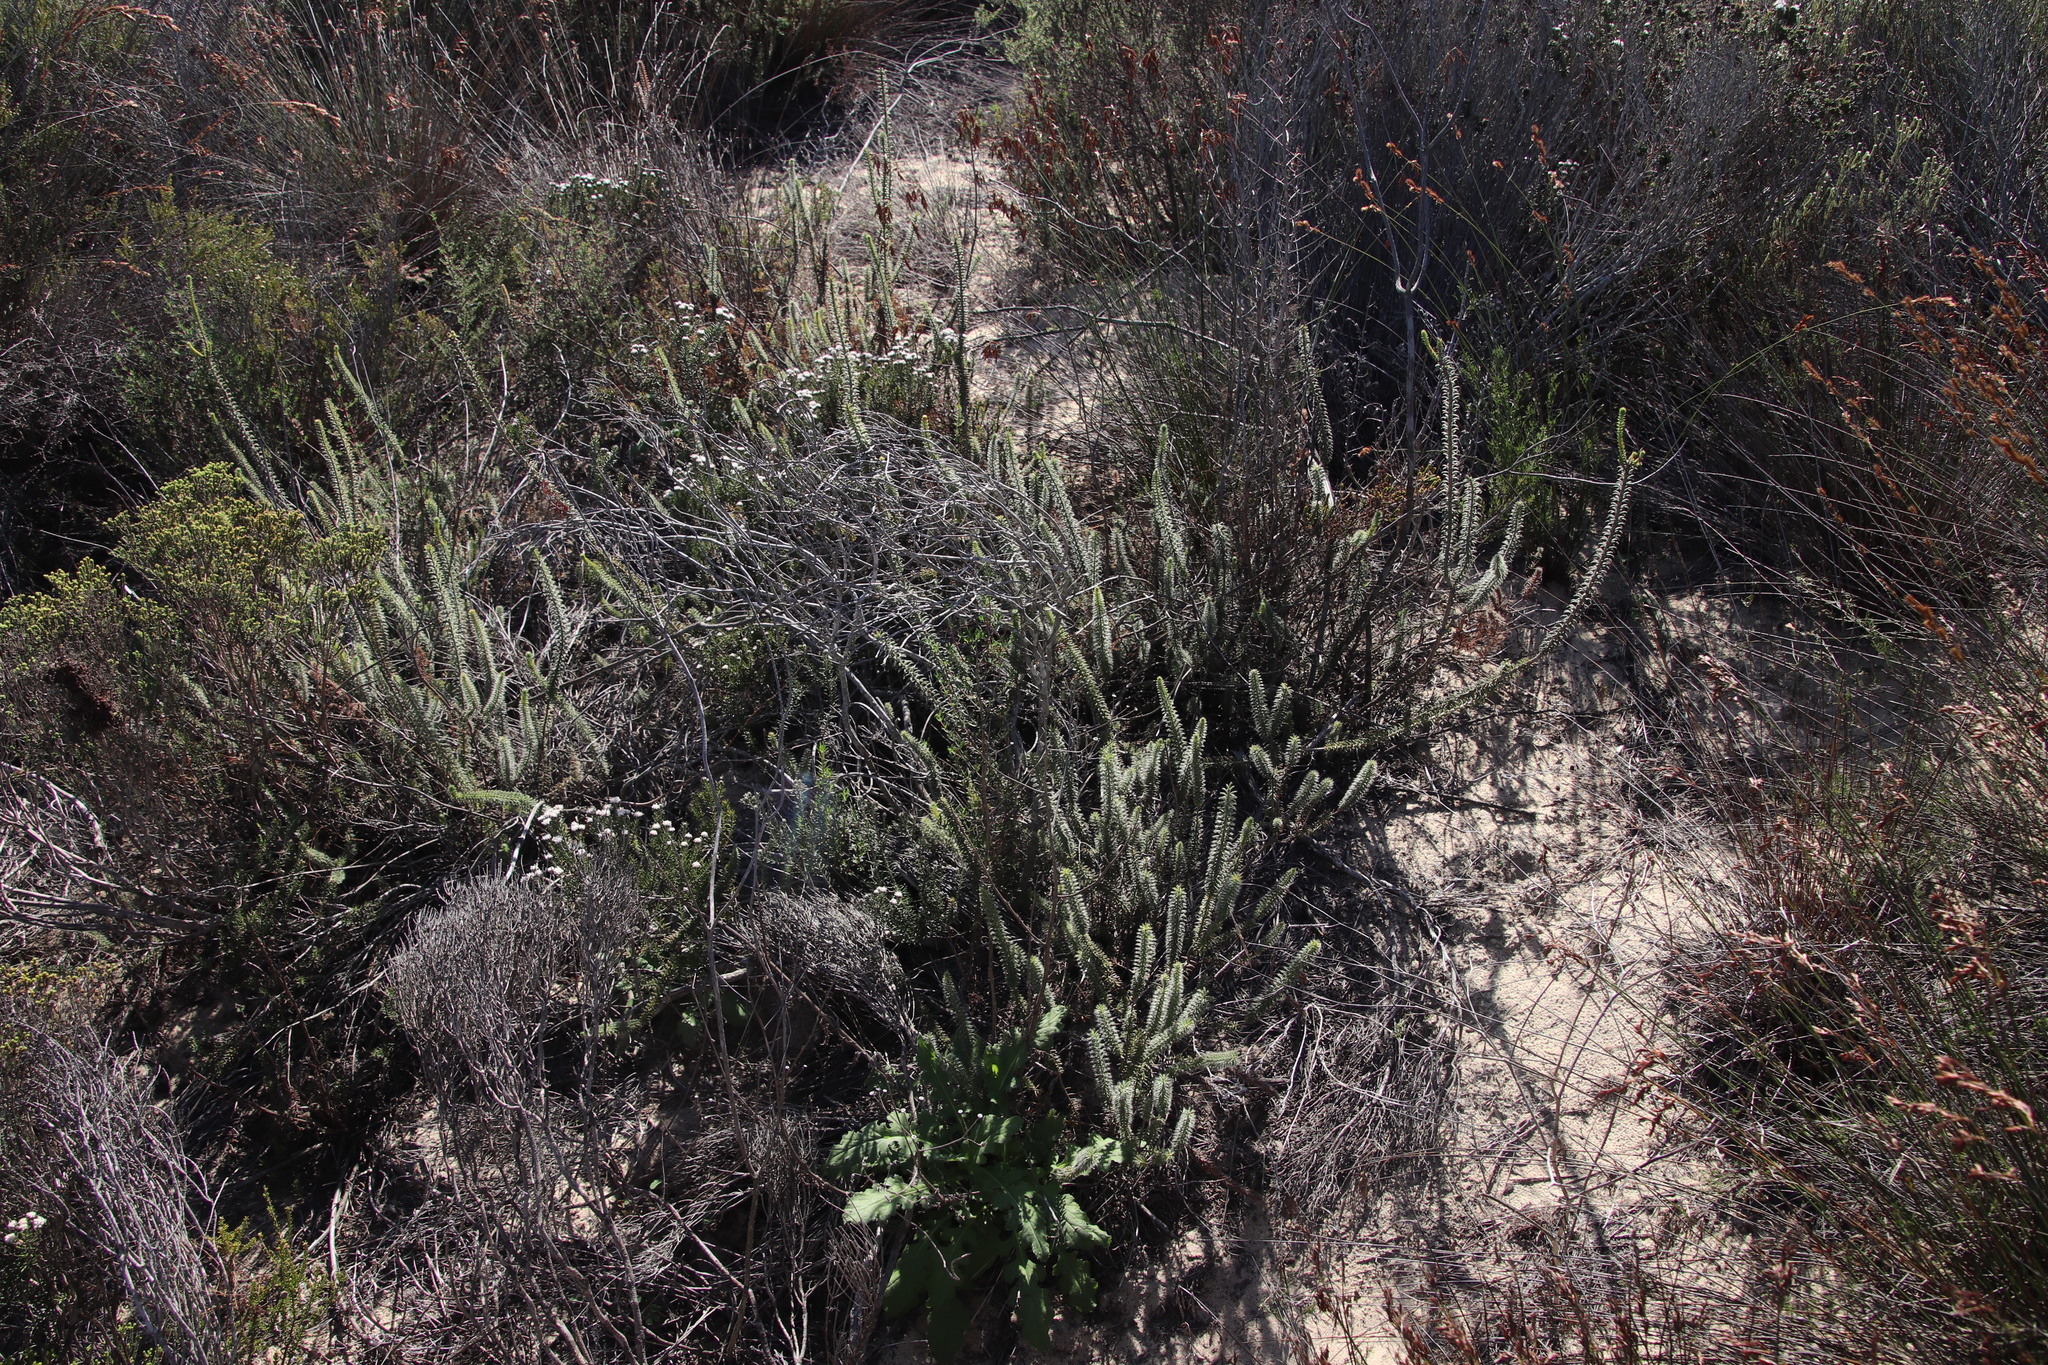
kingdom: Plantae
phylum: Tracheophyta
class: Magnoliopsida
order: Ericales
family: Ericaceae
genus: Erica
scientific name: Erica cerinthoides
